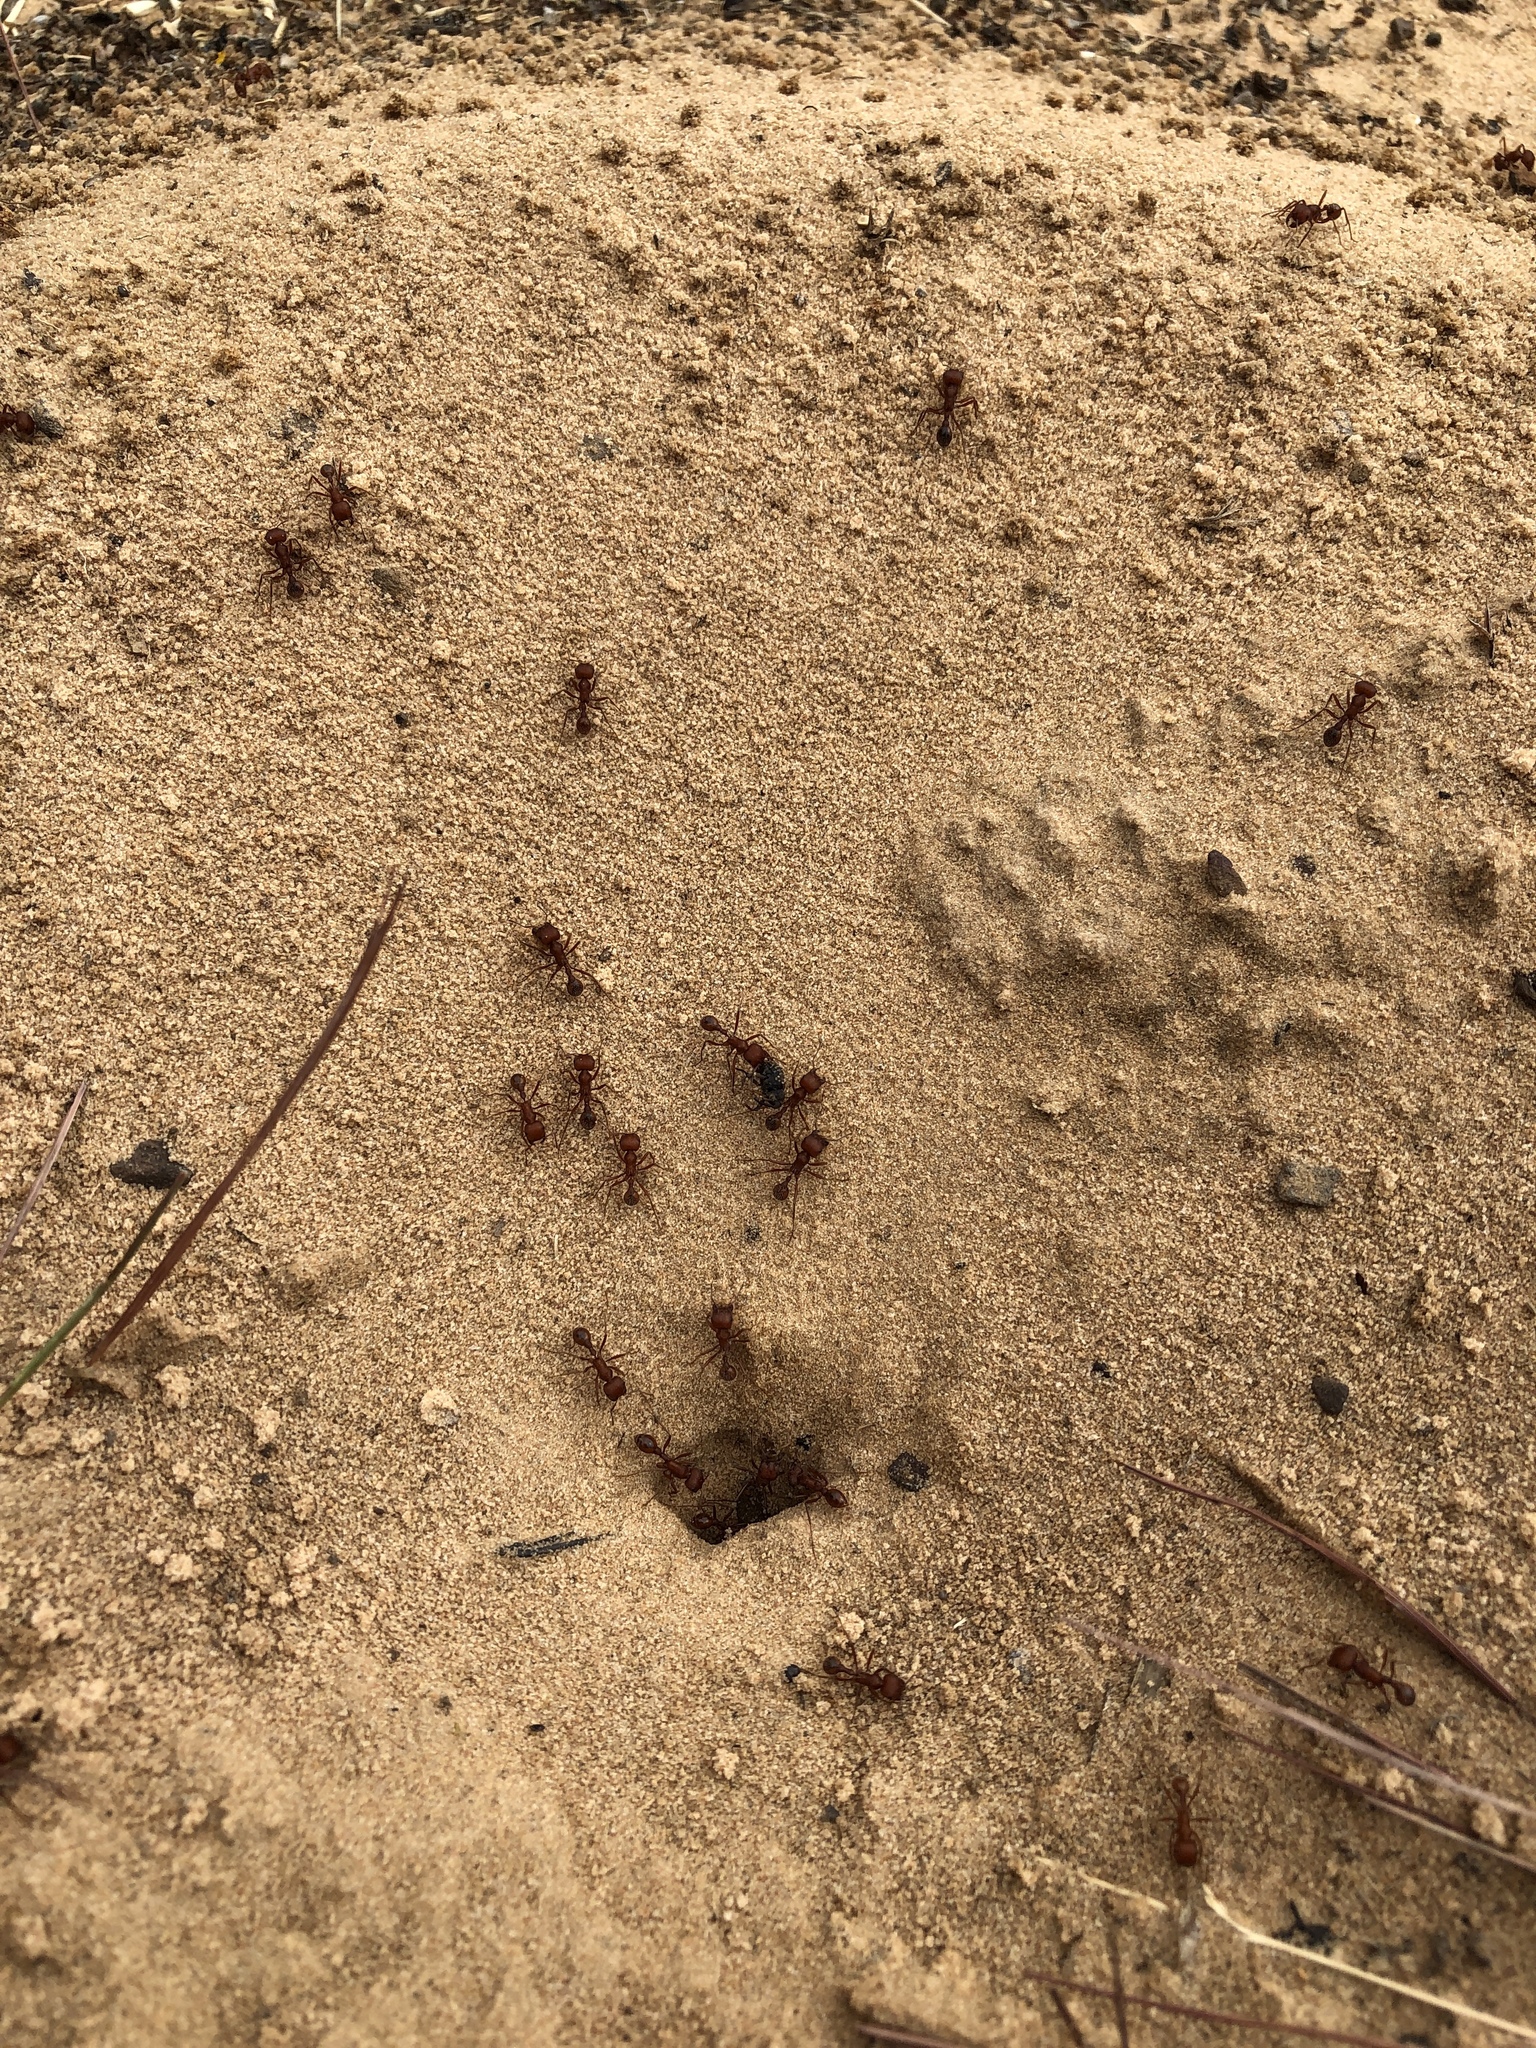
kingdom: Animalia
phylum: Arthropoda
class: Insecta
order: Hymenoptera
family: Formicidae
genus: Pogonomyrmex
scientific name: Pogonomyrmex comanche
